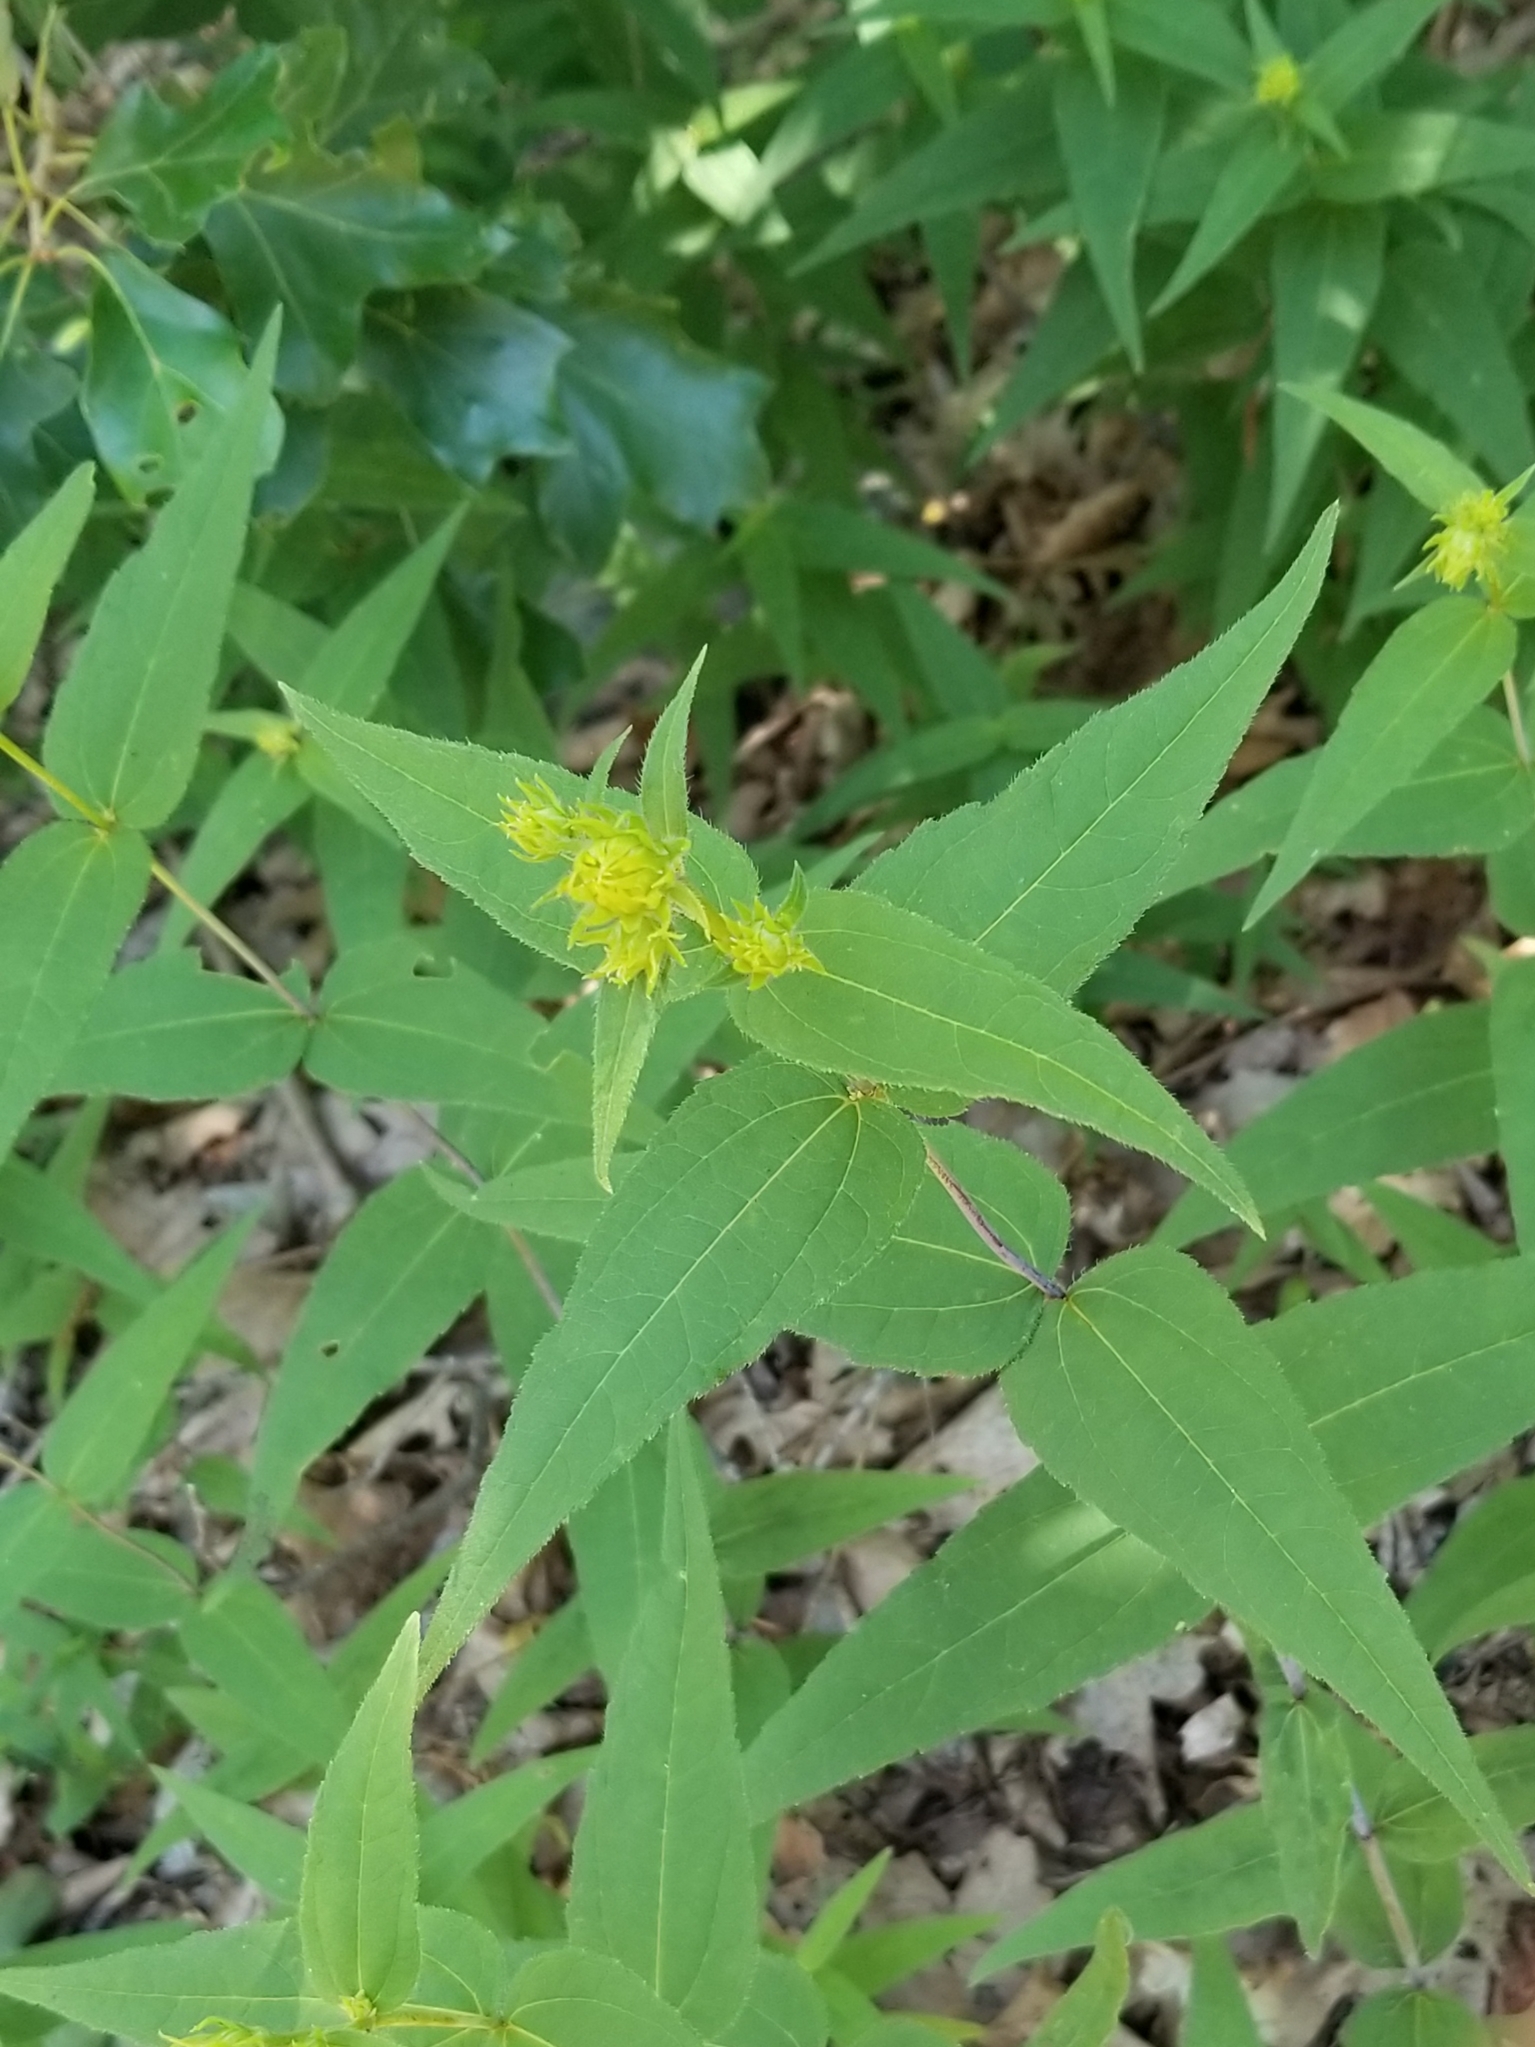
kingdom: Plantae
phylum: Tracheophyta
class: Magnoliopsida
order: Asterales
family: Asteraceae
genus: Helianthus
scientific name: Helianthus divaricatus
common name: Divergent sunflower
